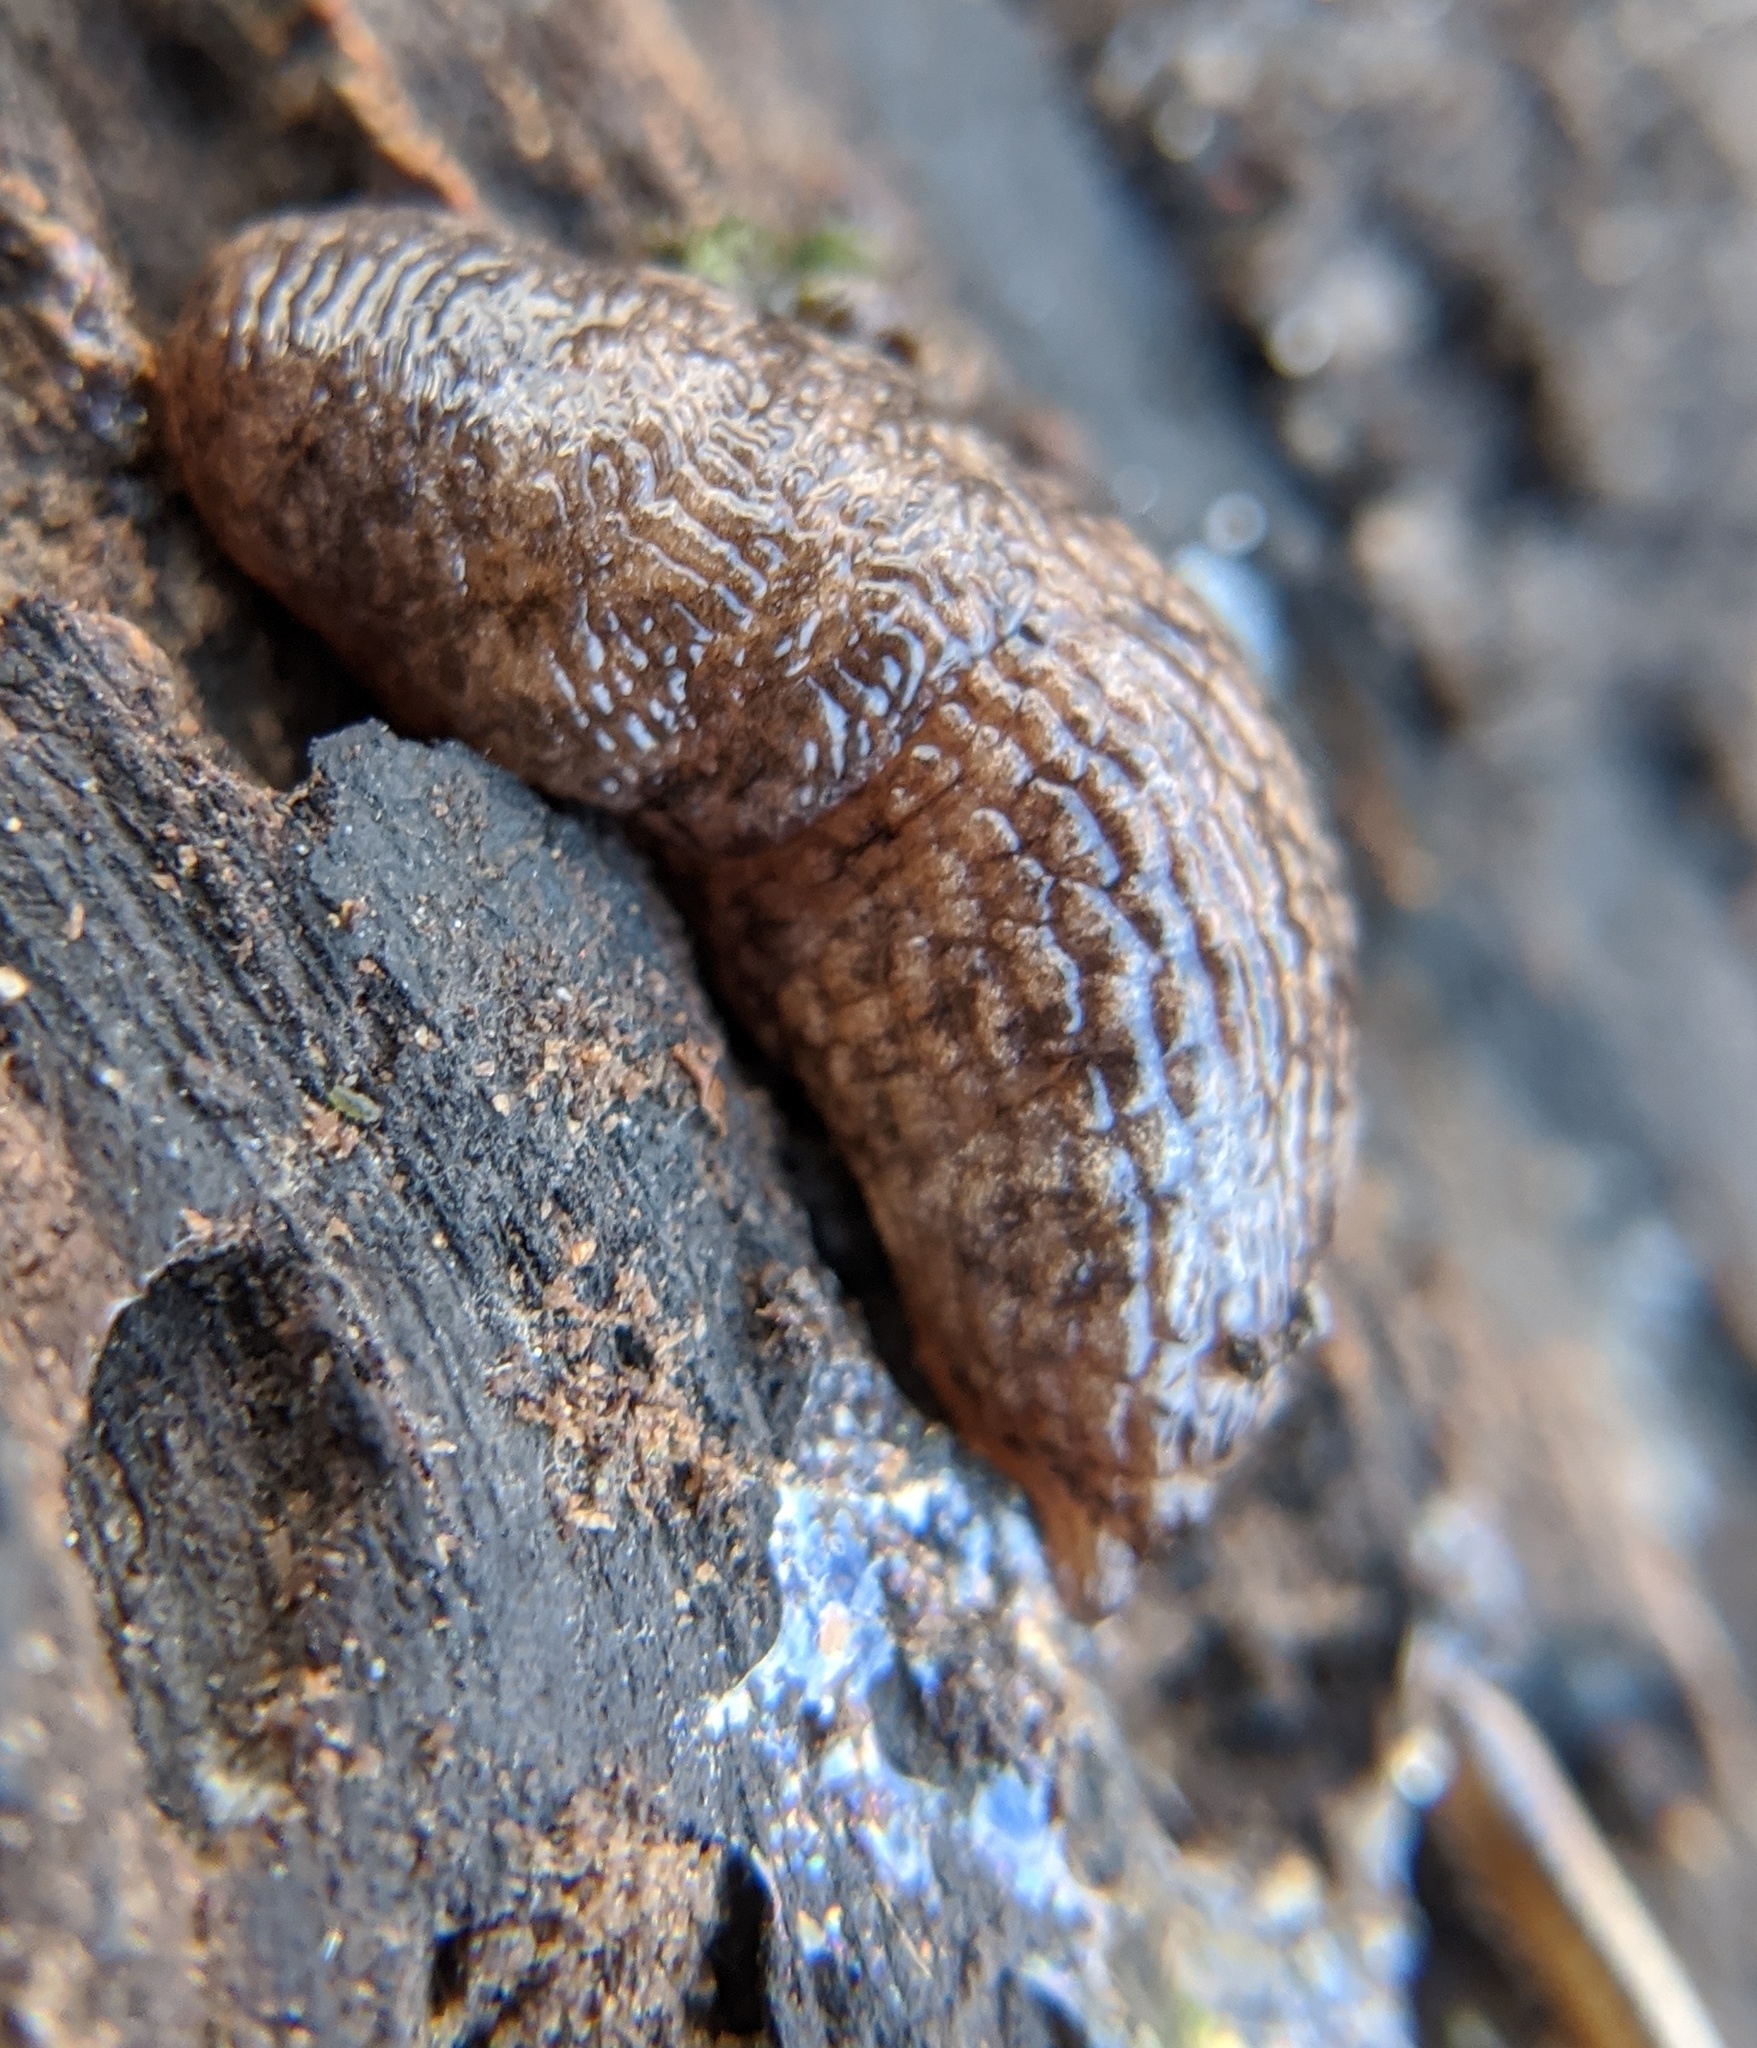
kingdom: Animalia
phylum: Mollusca
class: Gastropoda
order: Stylommatophora
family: Agriolimacidae
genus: Deroceras
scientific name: Deroceras reticulatum
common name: Gray field slug
